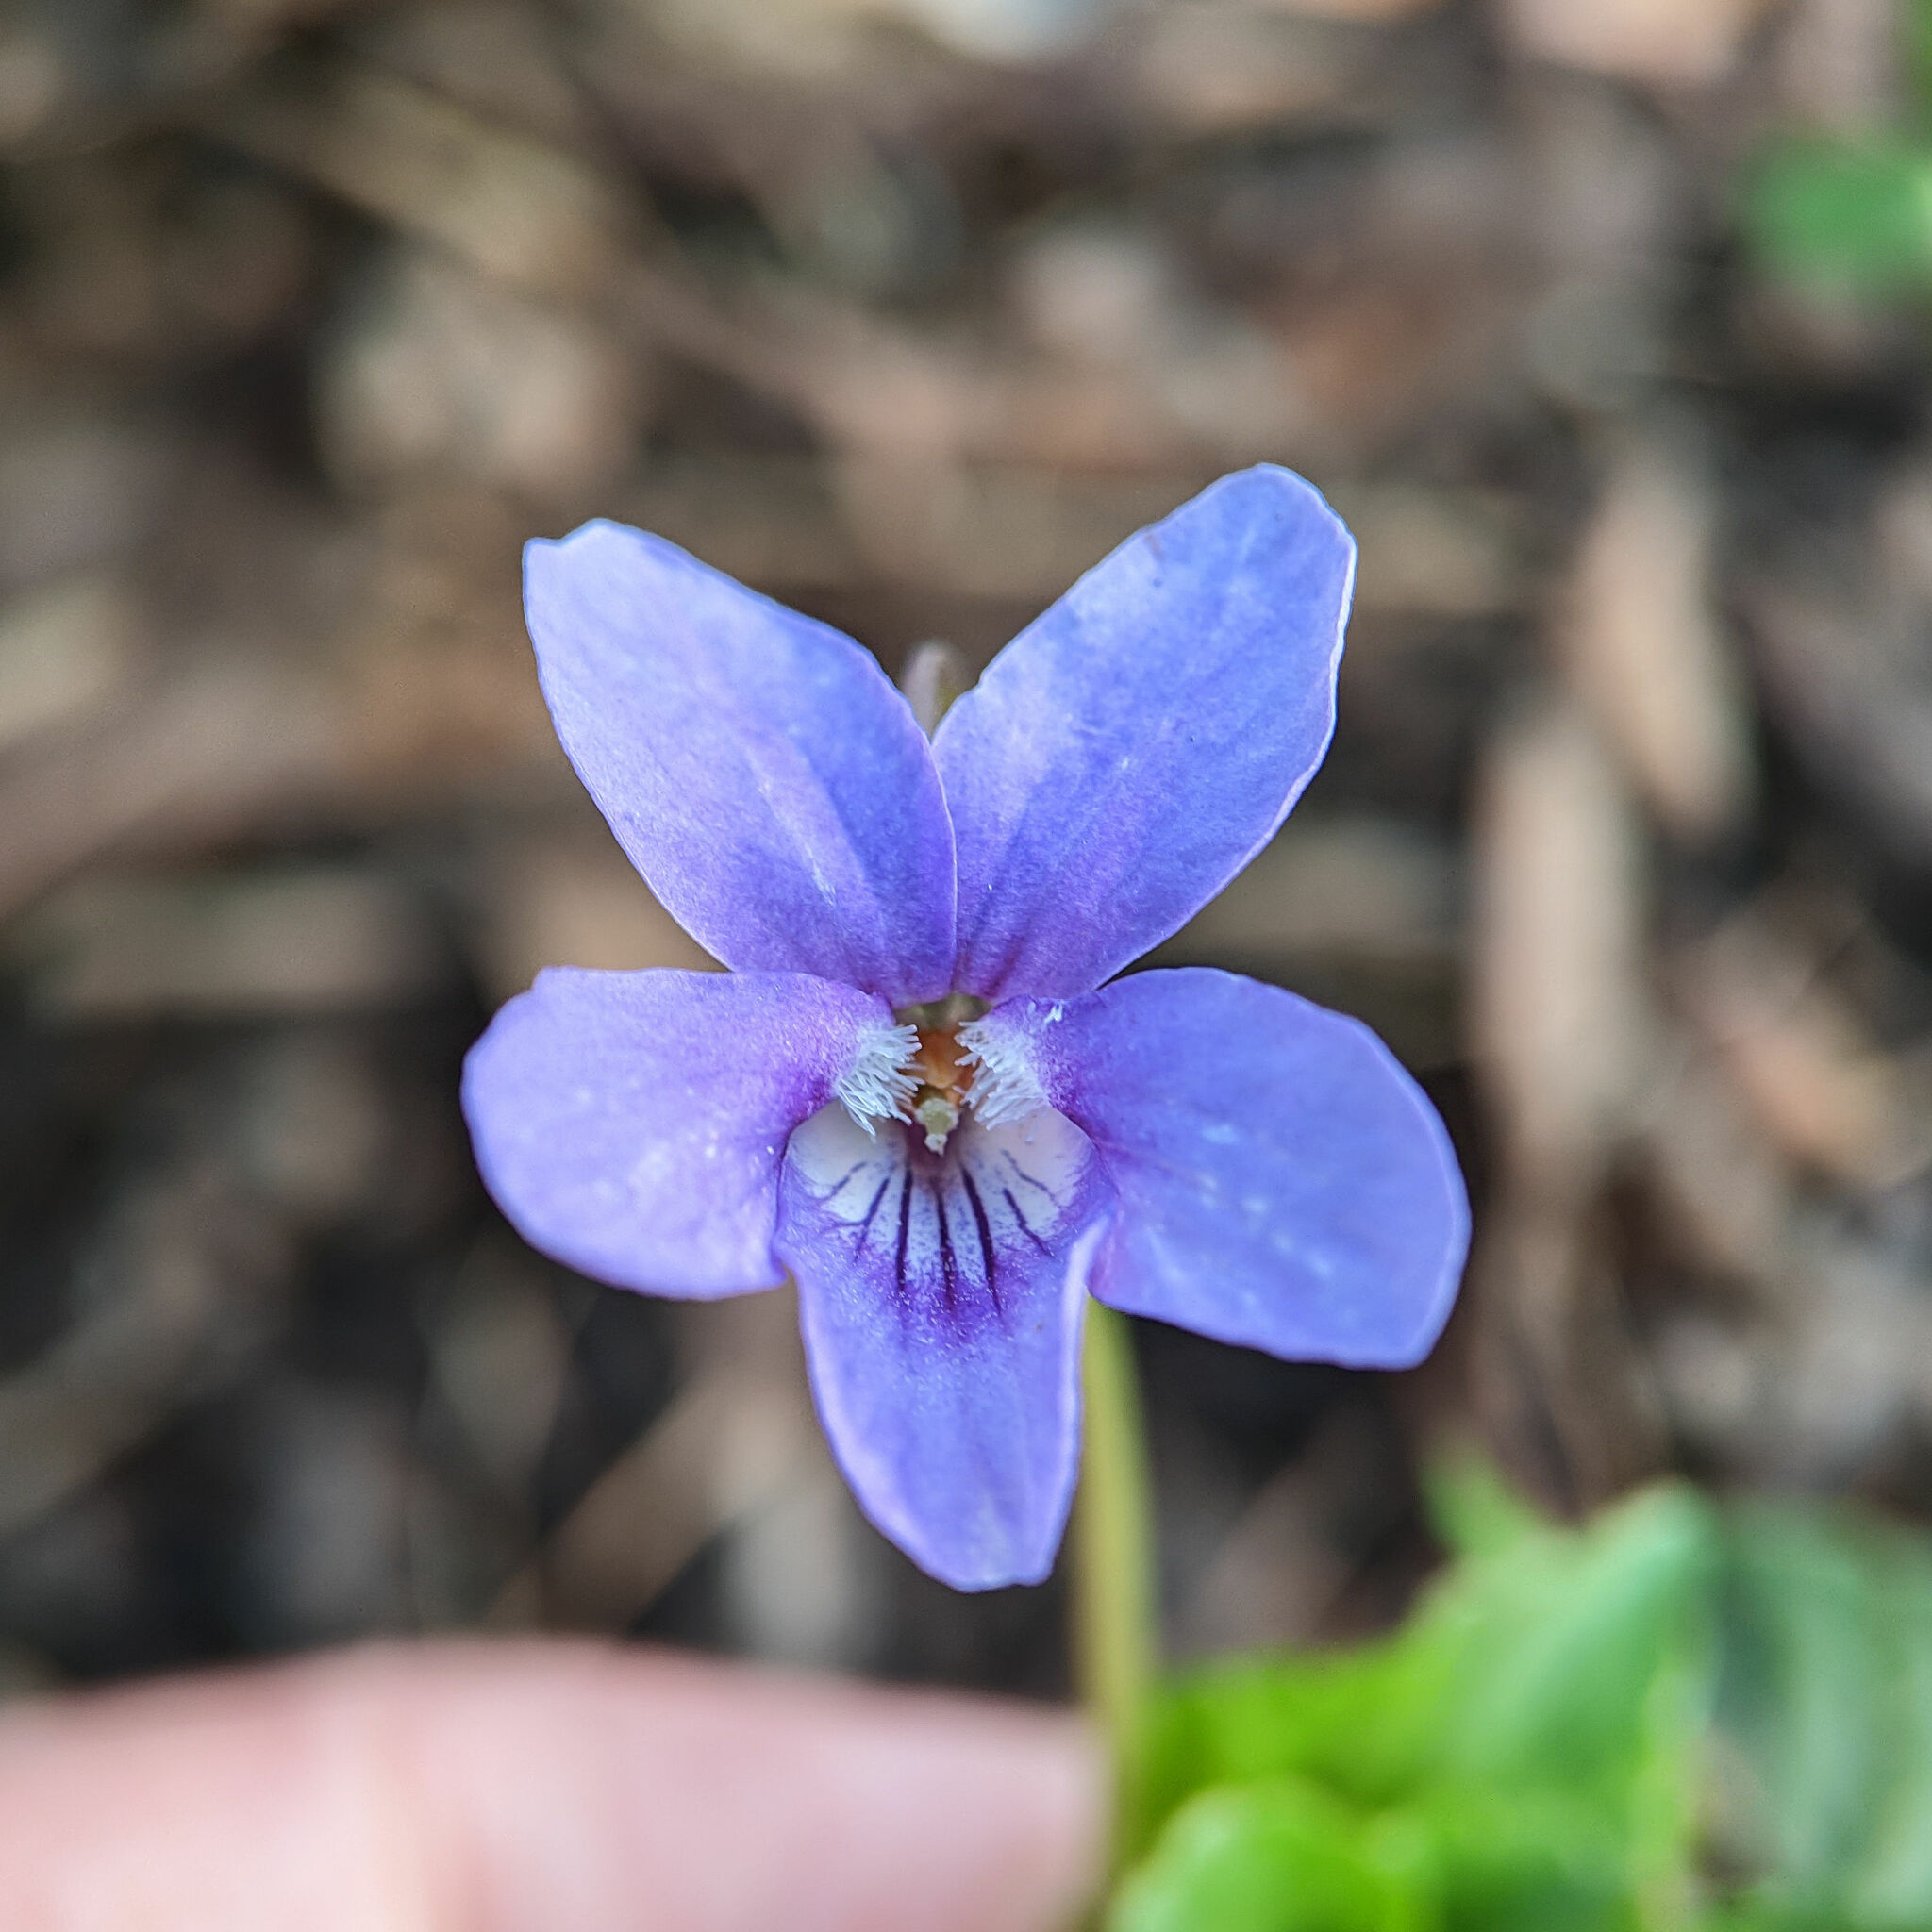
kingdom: Plantae
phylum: Tracheophyta
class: Magnoliopsida
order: Malpighiales
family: Violaceae
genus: Viola
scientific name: Viola reichenbachiana
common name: Early dog-violet
